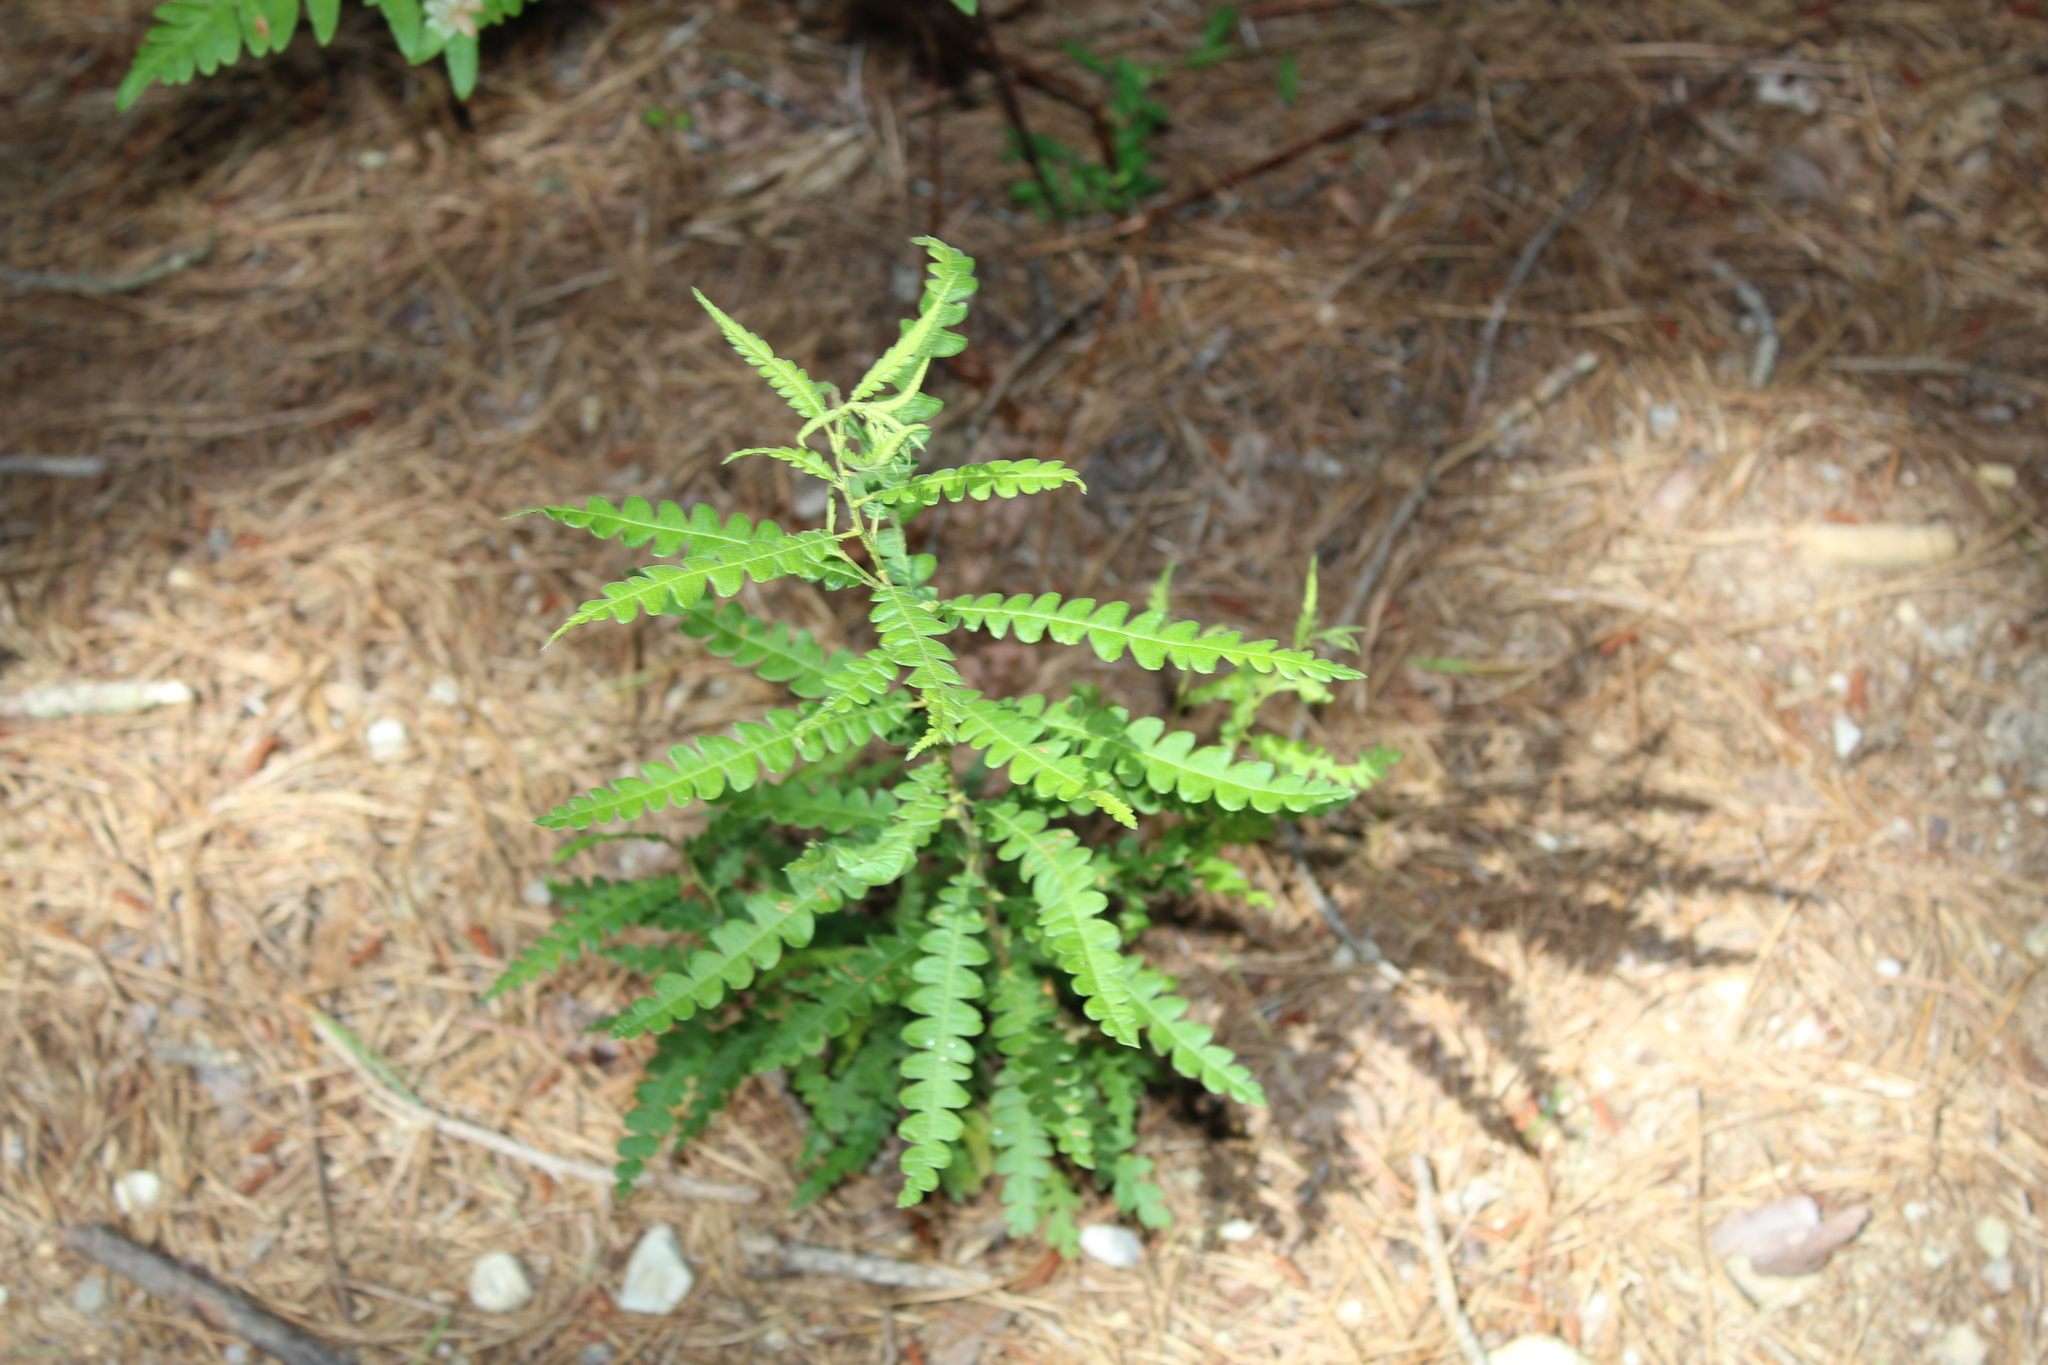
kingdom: Plantae
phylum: Tracheophyta
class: Magnoliopsida
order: Fagales
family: Myricaceae
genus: Comptonia
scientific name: Comptonia peregrina
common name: Sweet-fern
